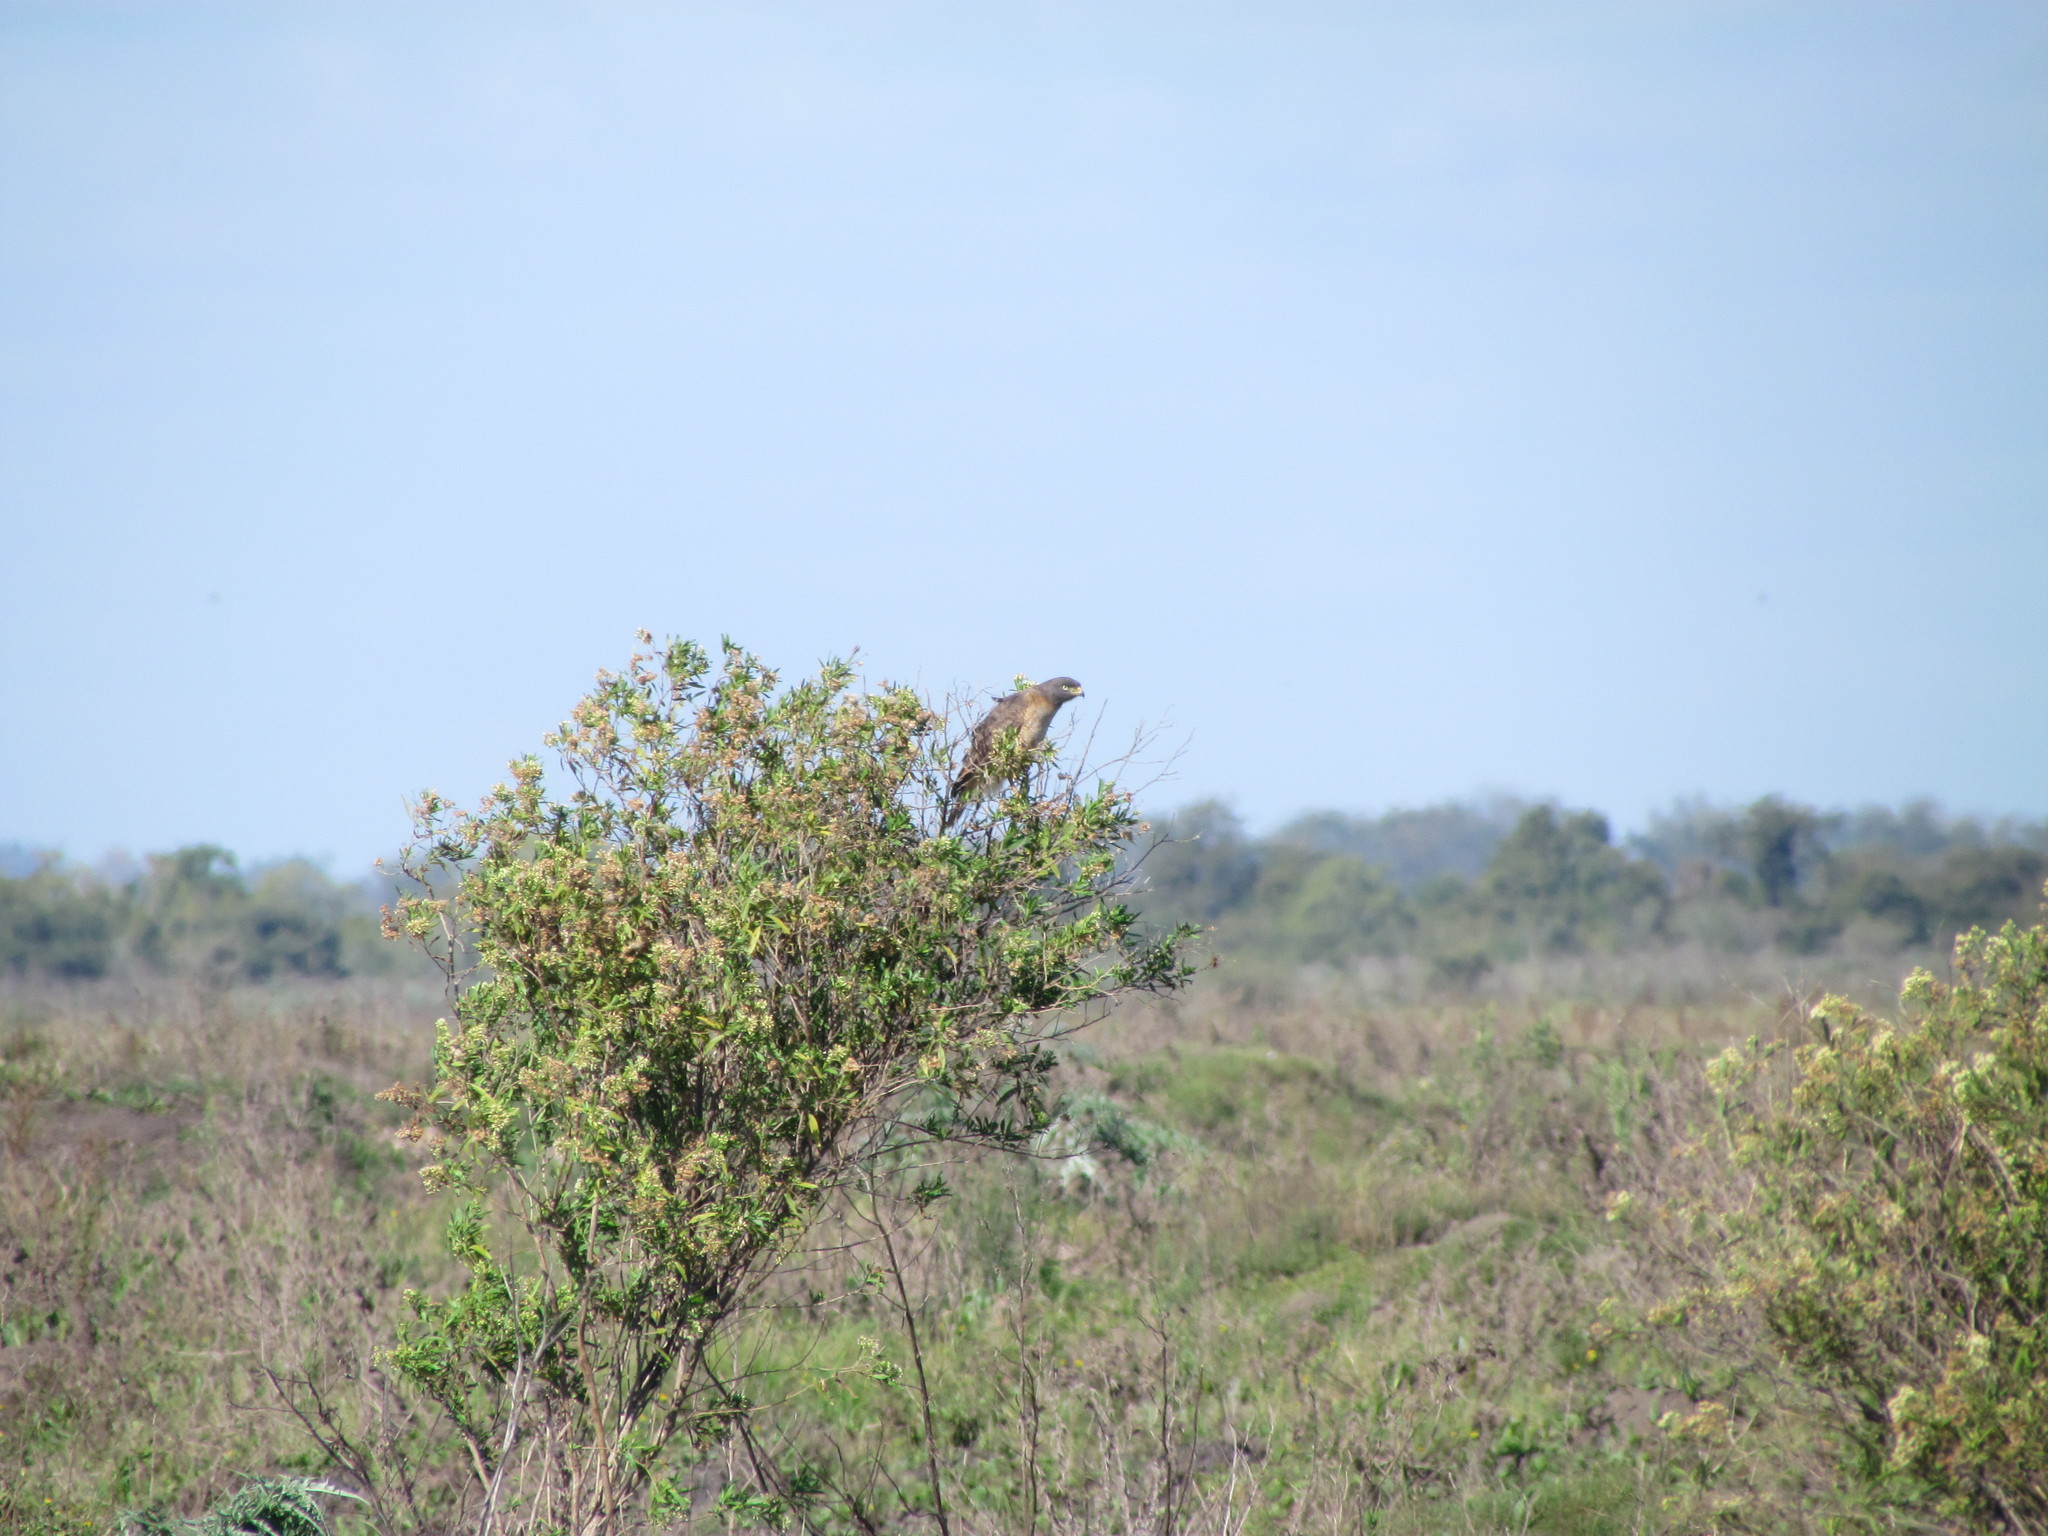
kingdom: Animalia
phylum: Chordata
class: Aves
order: Accipitriformes
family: Accipitridae
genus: Rupornis
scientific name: Rupornis magnirostris
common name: Roadside hawk
